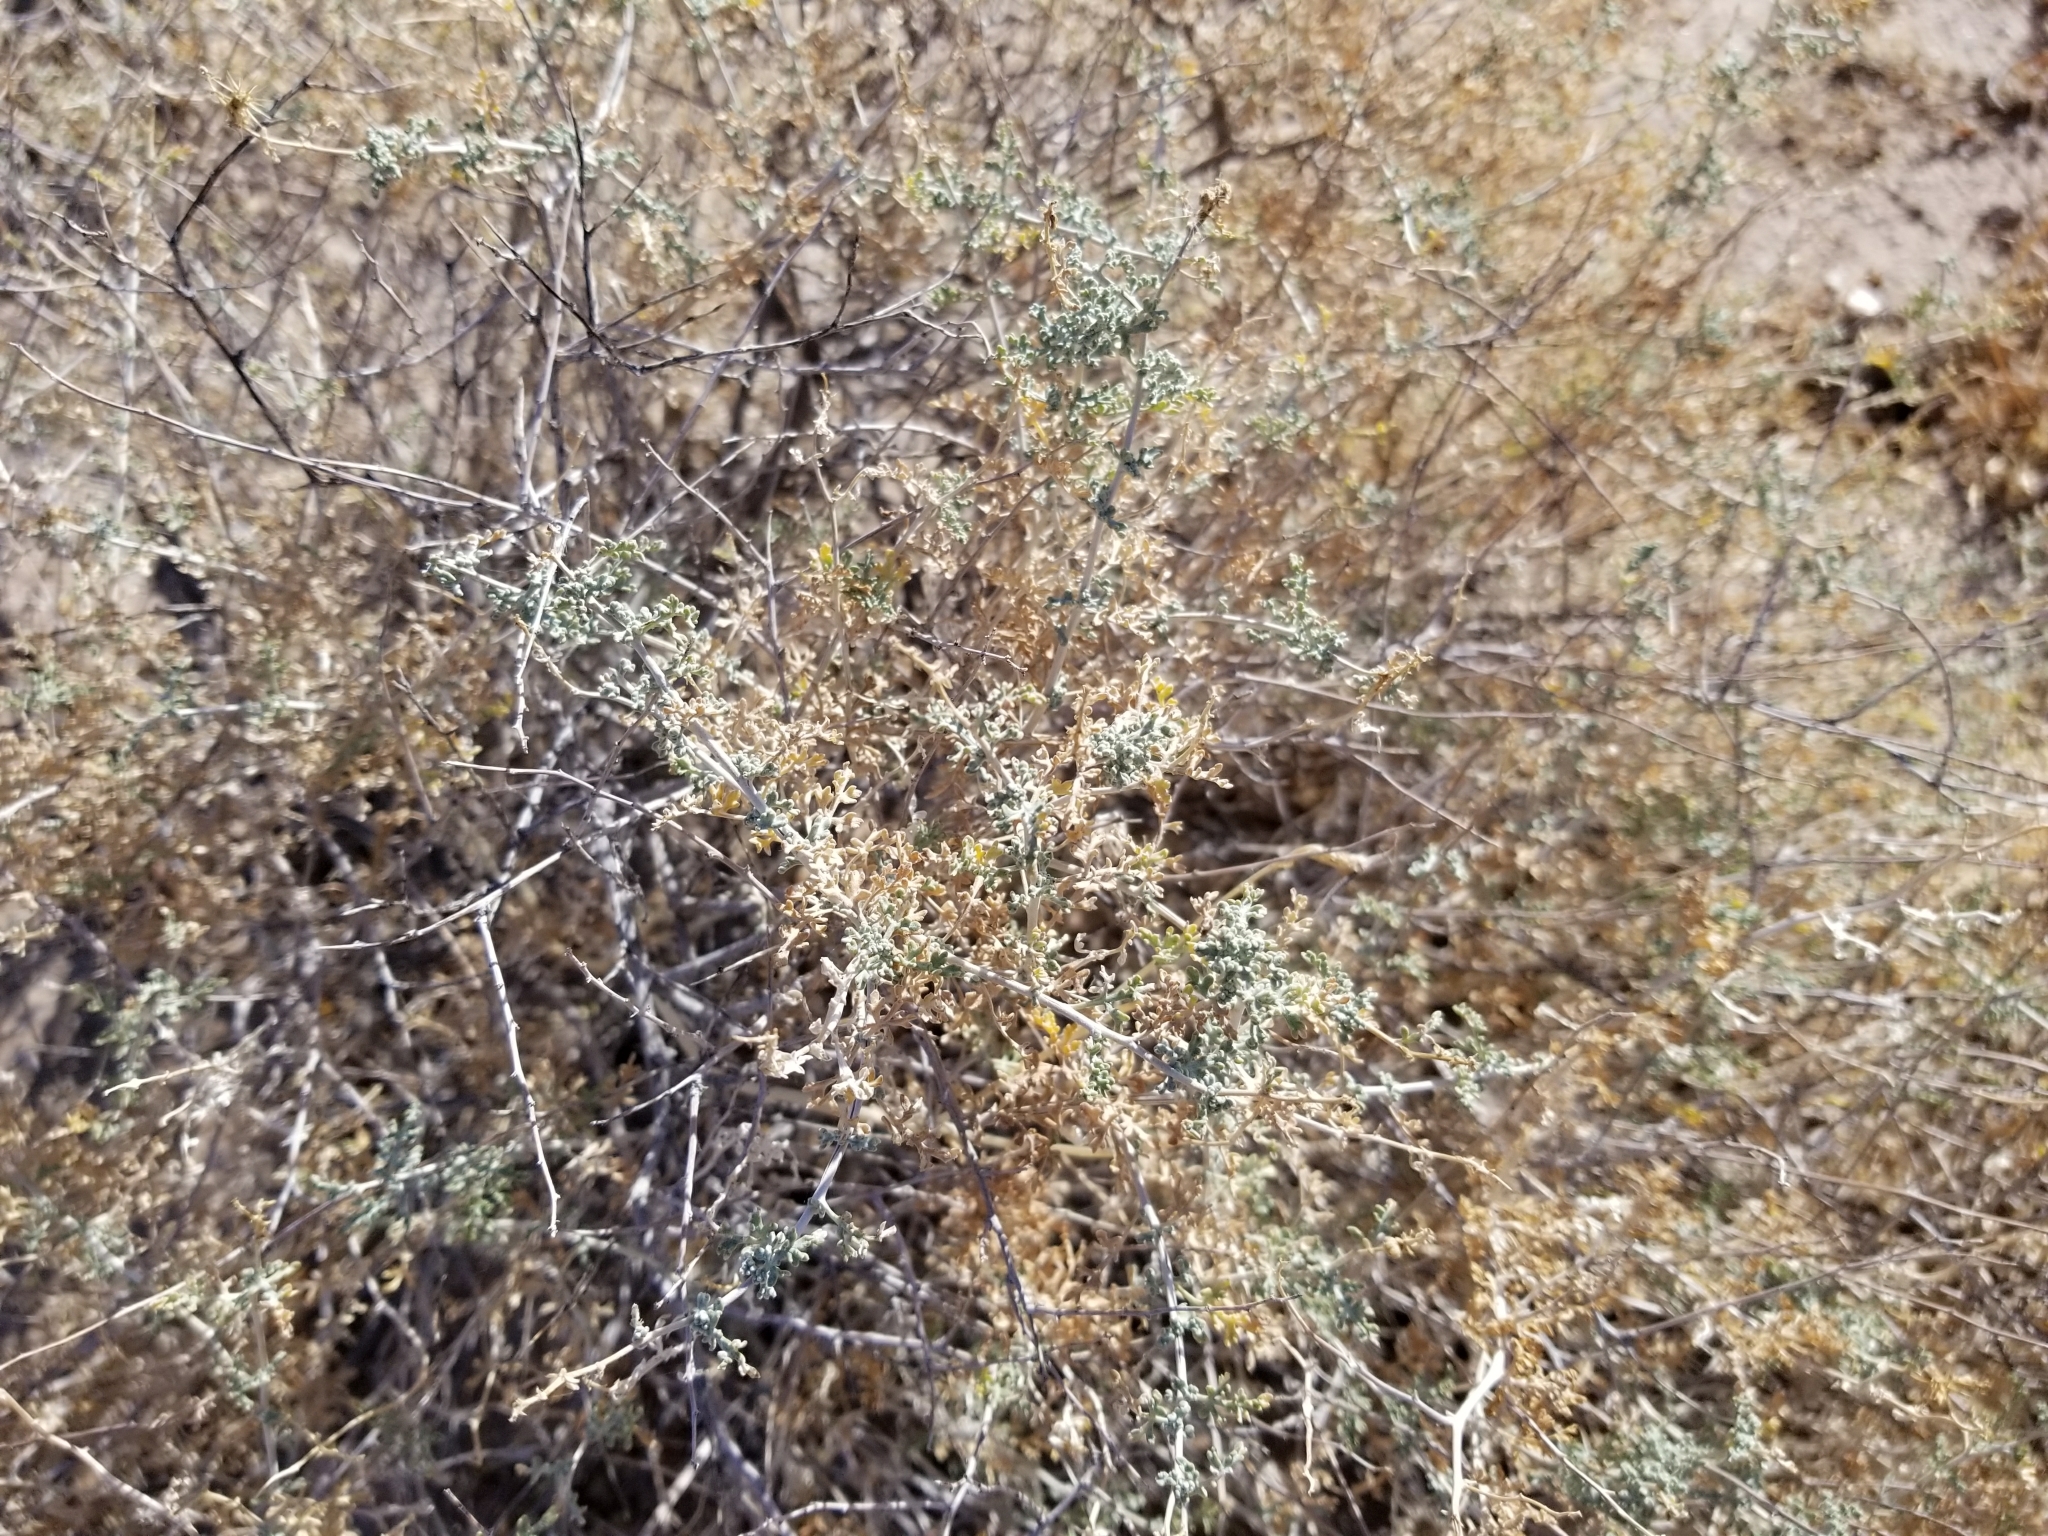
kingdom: Plantae
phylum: Tracheophyta
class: Magnoliopsida
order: Asterales
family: Asteraceae
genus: Ambrosia
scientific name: Ambrosia dumosa
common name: Bur-sage
